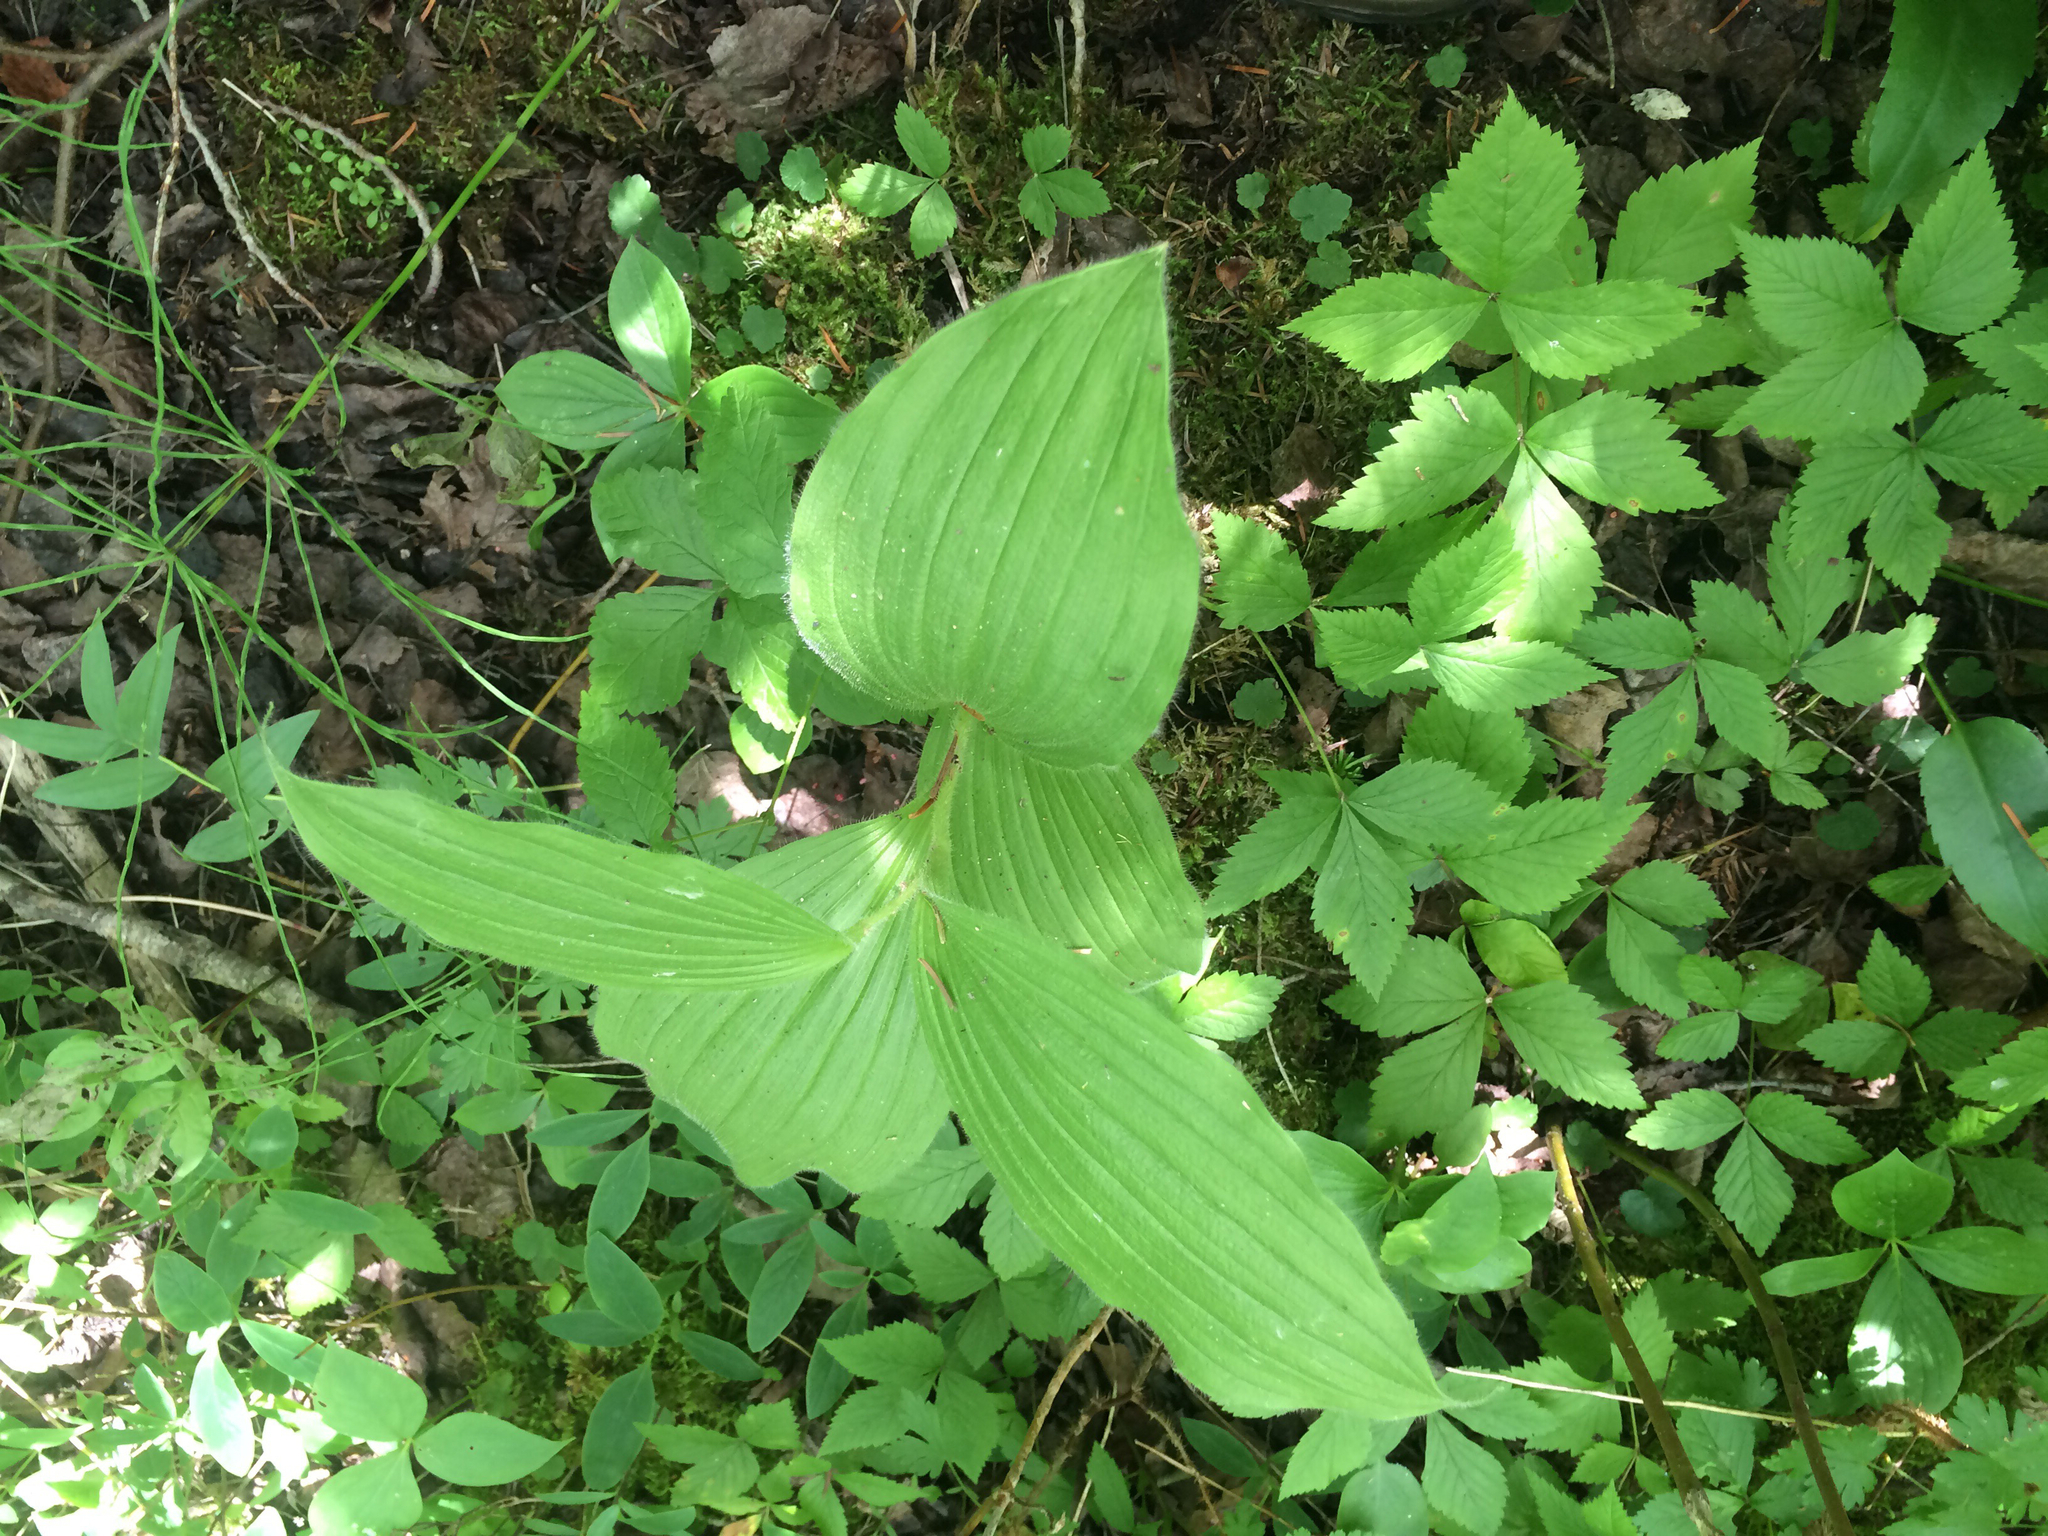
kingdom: Plantae
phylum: Tracheophyta
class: Liliopsida
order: Asparagales
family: Orchidaceae
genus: Cypripedium
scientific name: Cypripedium parviflorum
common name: American yellow lady's-slipper
